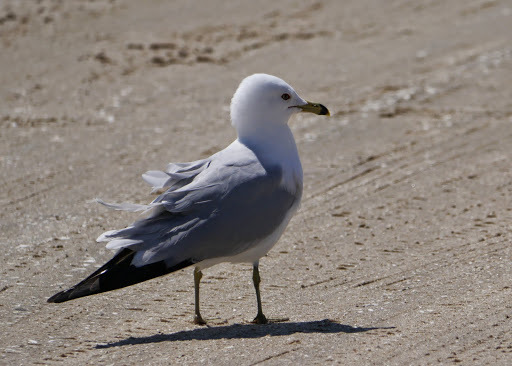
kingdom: Animalia
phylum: Chordata
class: Aves
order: Charadriiformes
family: Laridae
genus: Larus
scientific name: Larus delawarensis
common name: Ring-billed gull
